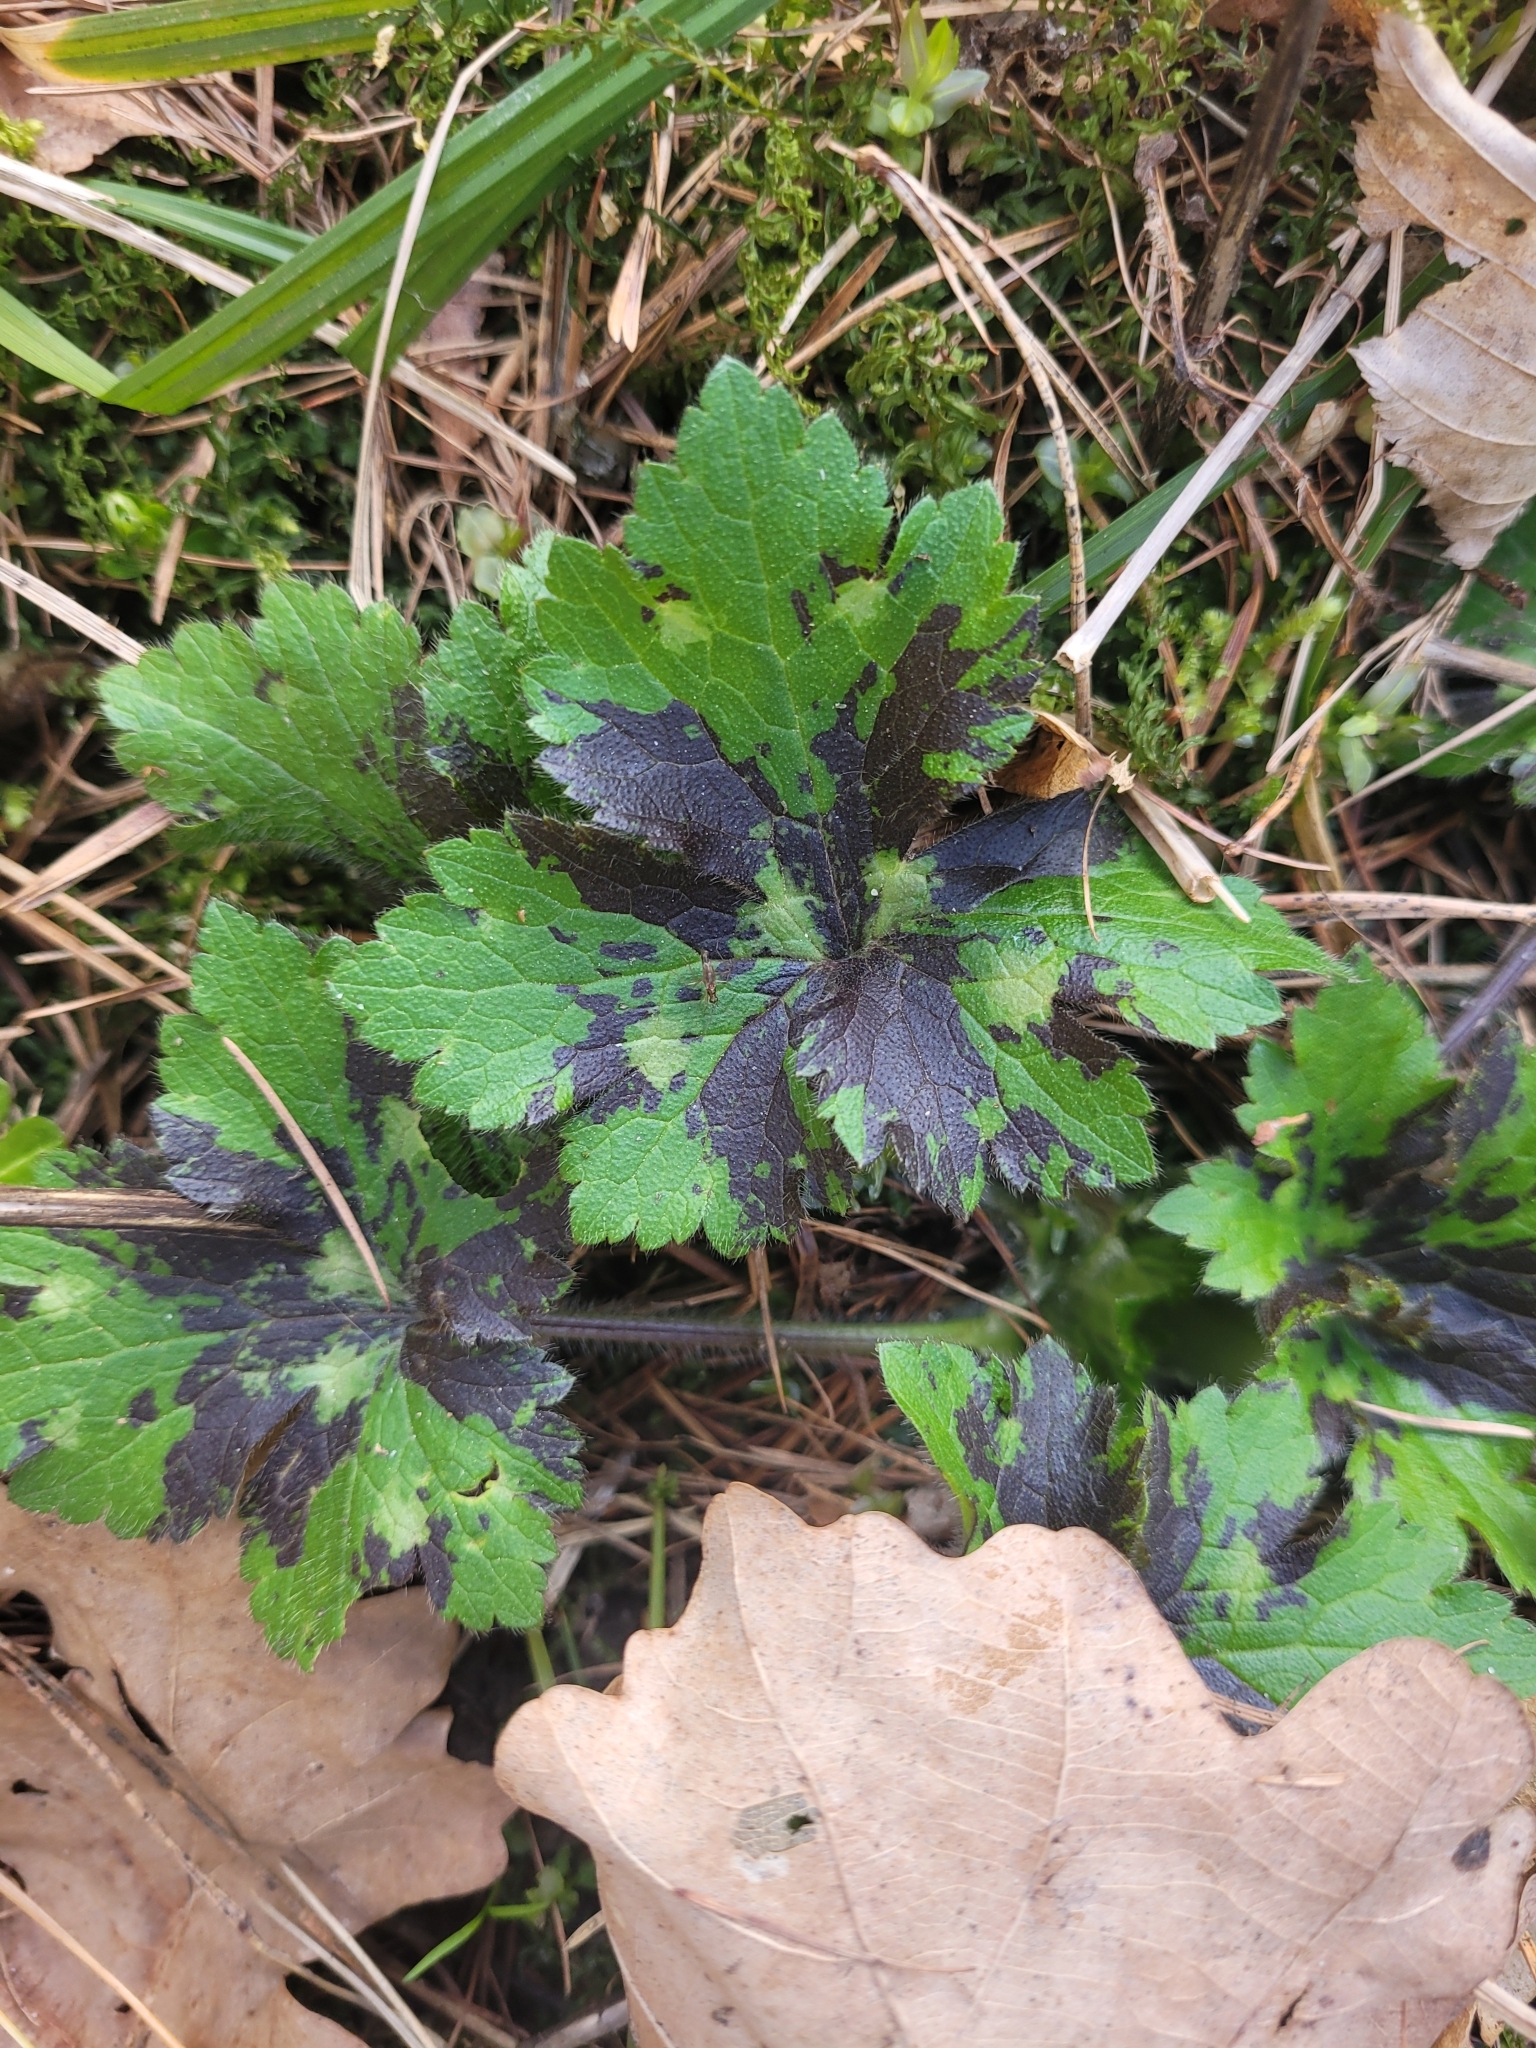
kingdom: Plantae
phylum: Tracheophyta
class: Magnoliopsida
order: Ranunculales
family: Ranunculaceae
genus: Ranunculus
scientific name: Ranunculus lanuginosus
